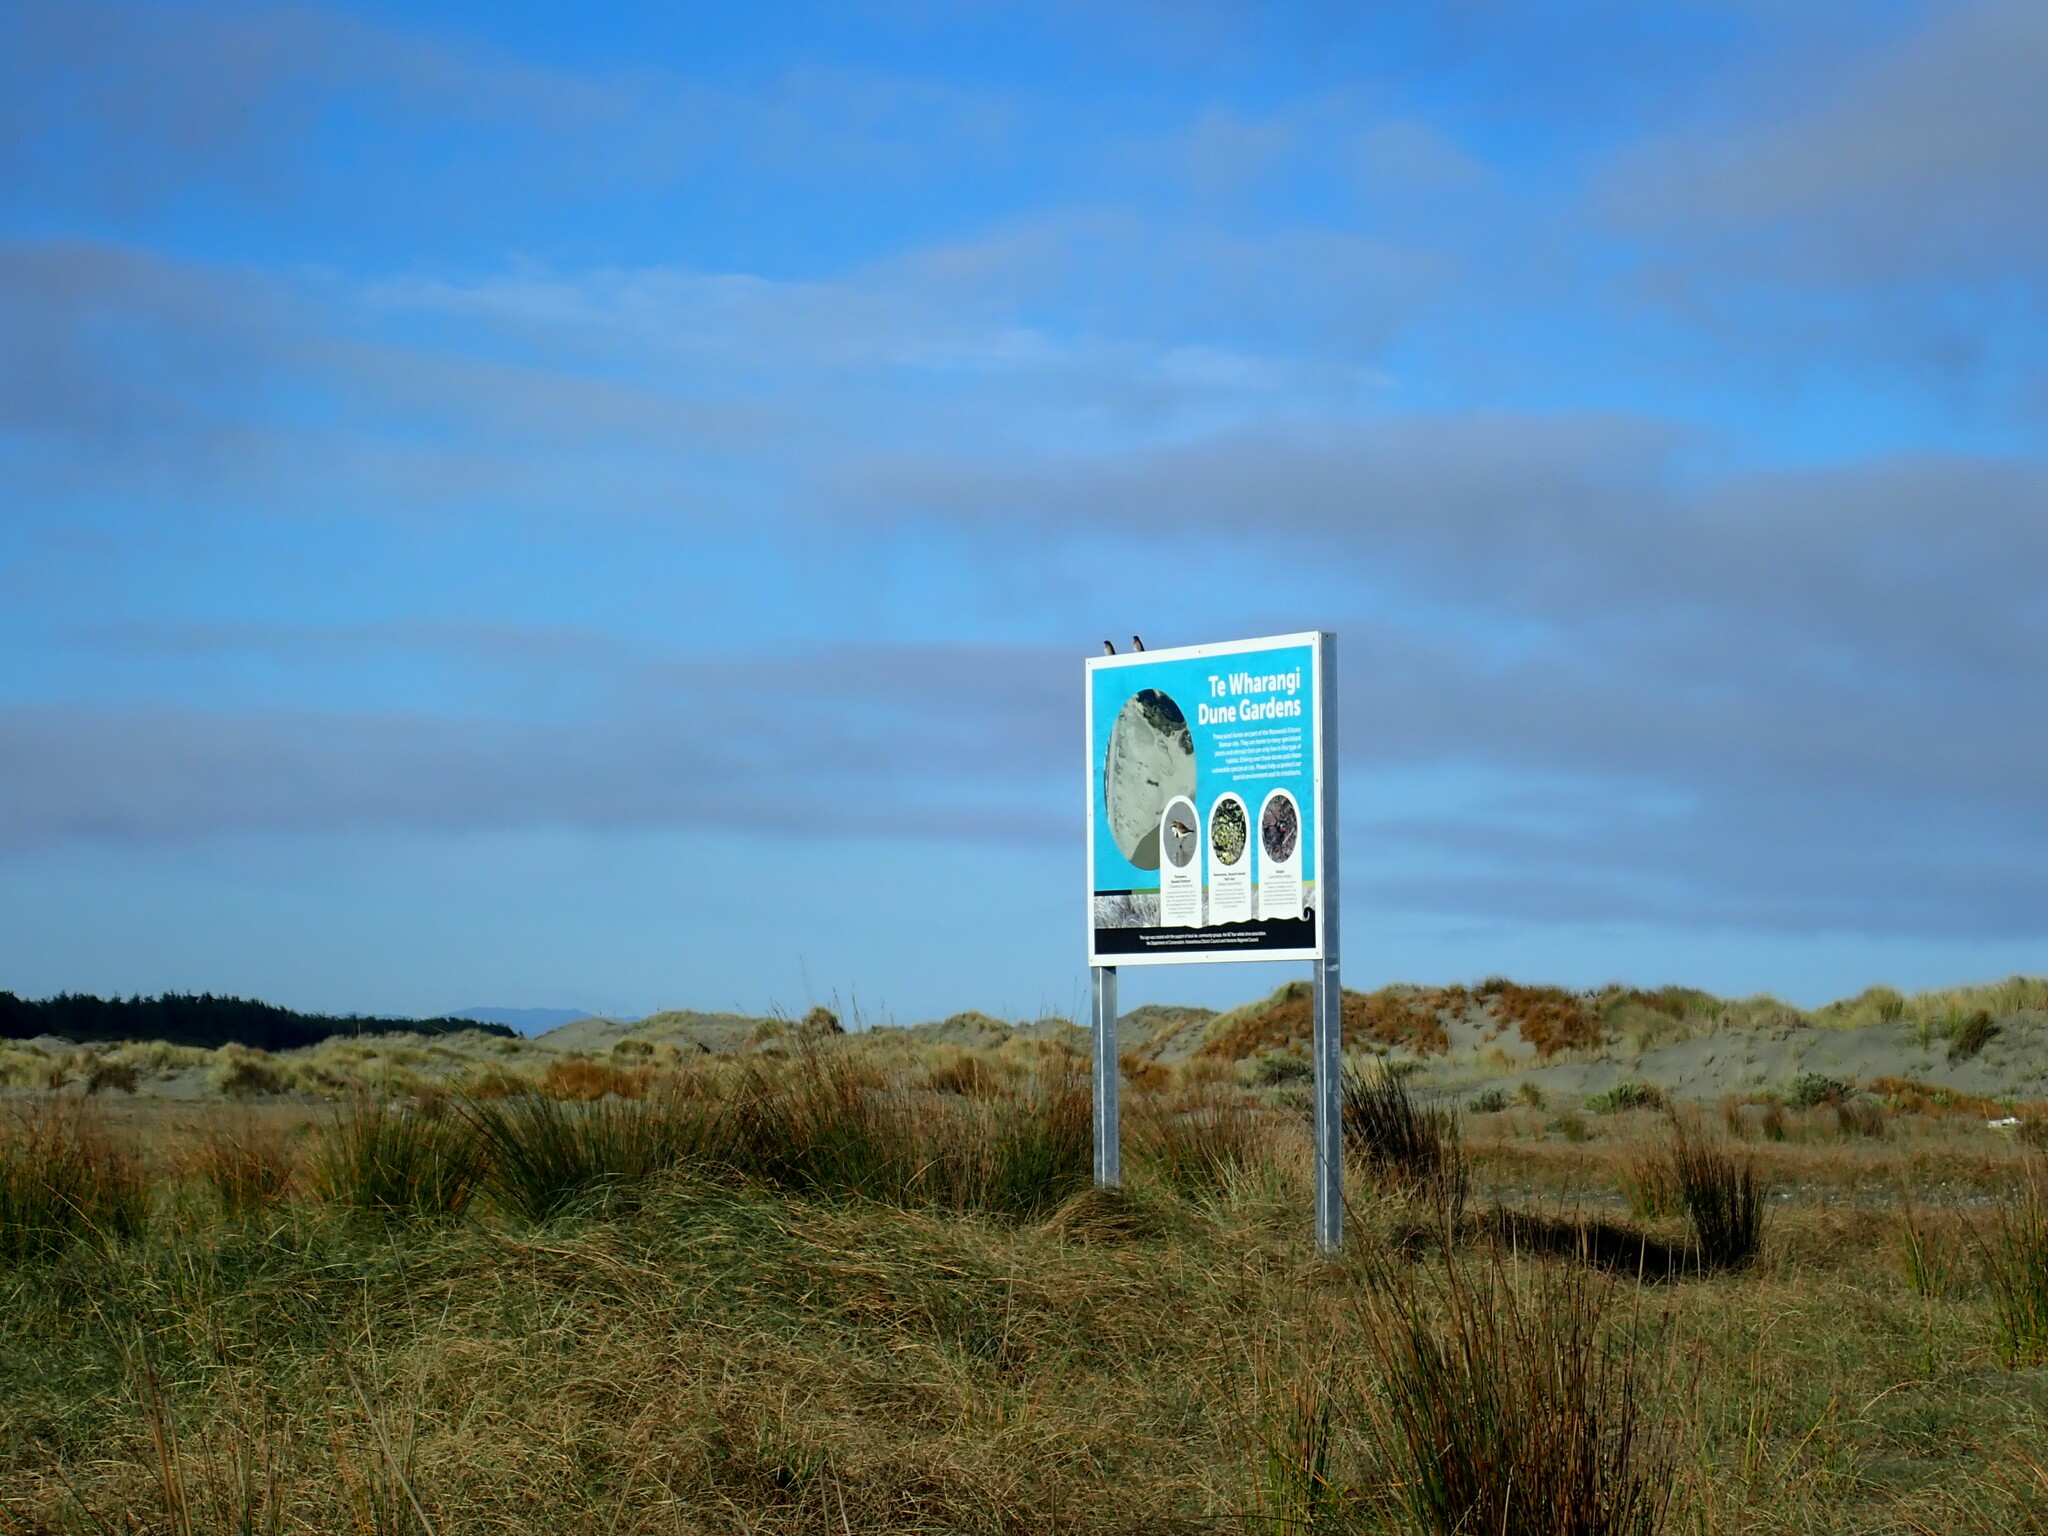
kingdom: Animalia
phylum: Chordata
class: Aves
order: Passeriformes
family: Hirundinidae
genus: Hirundo
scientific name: Hirundo neoxena
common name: Welcome swallow
